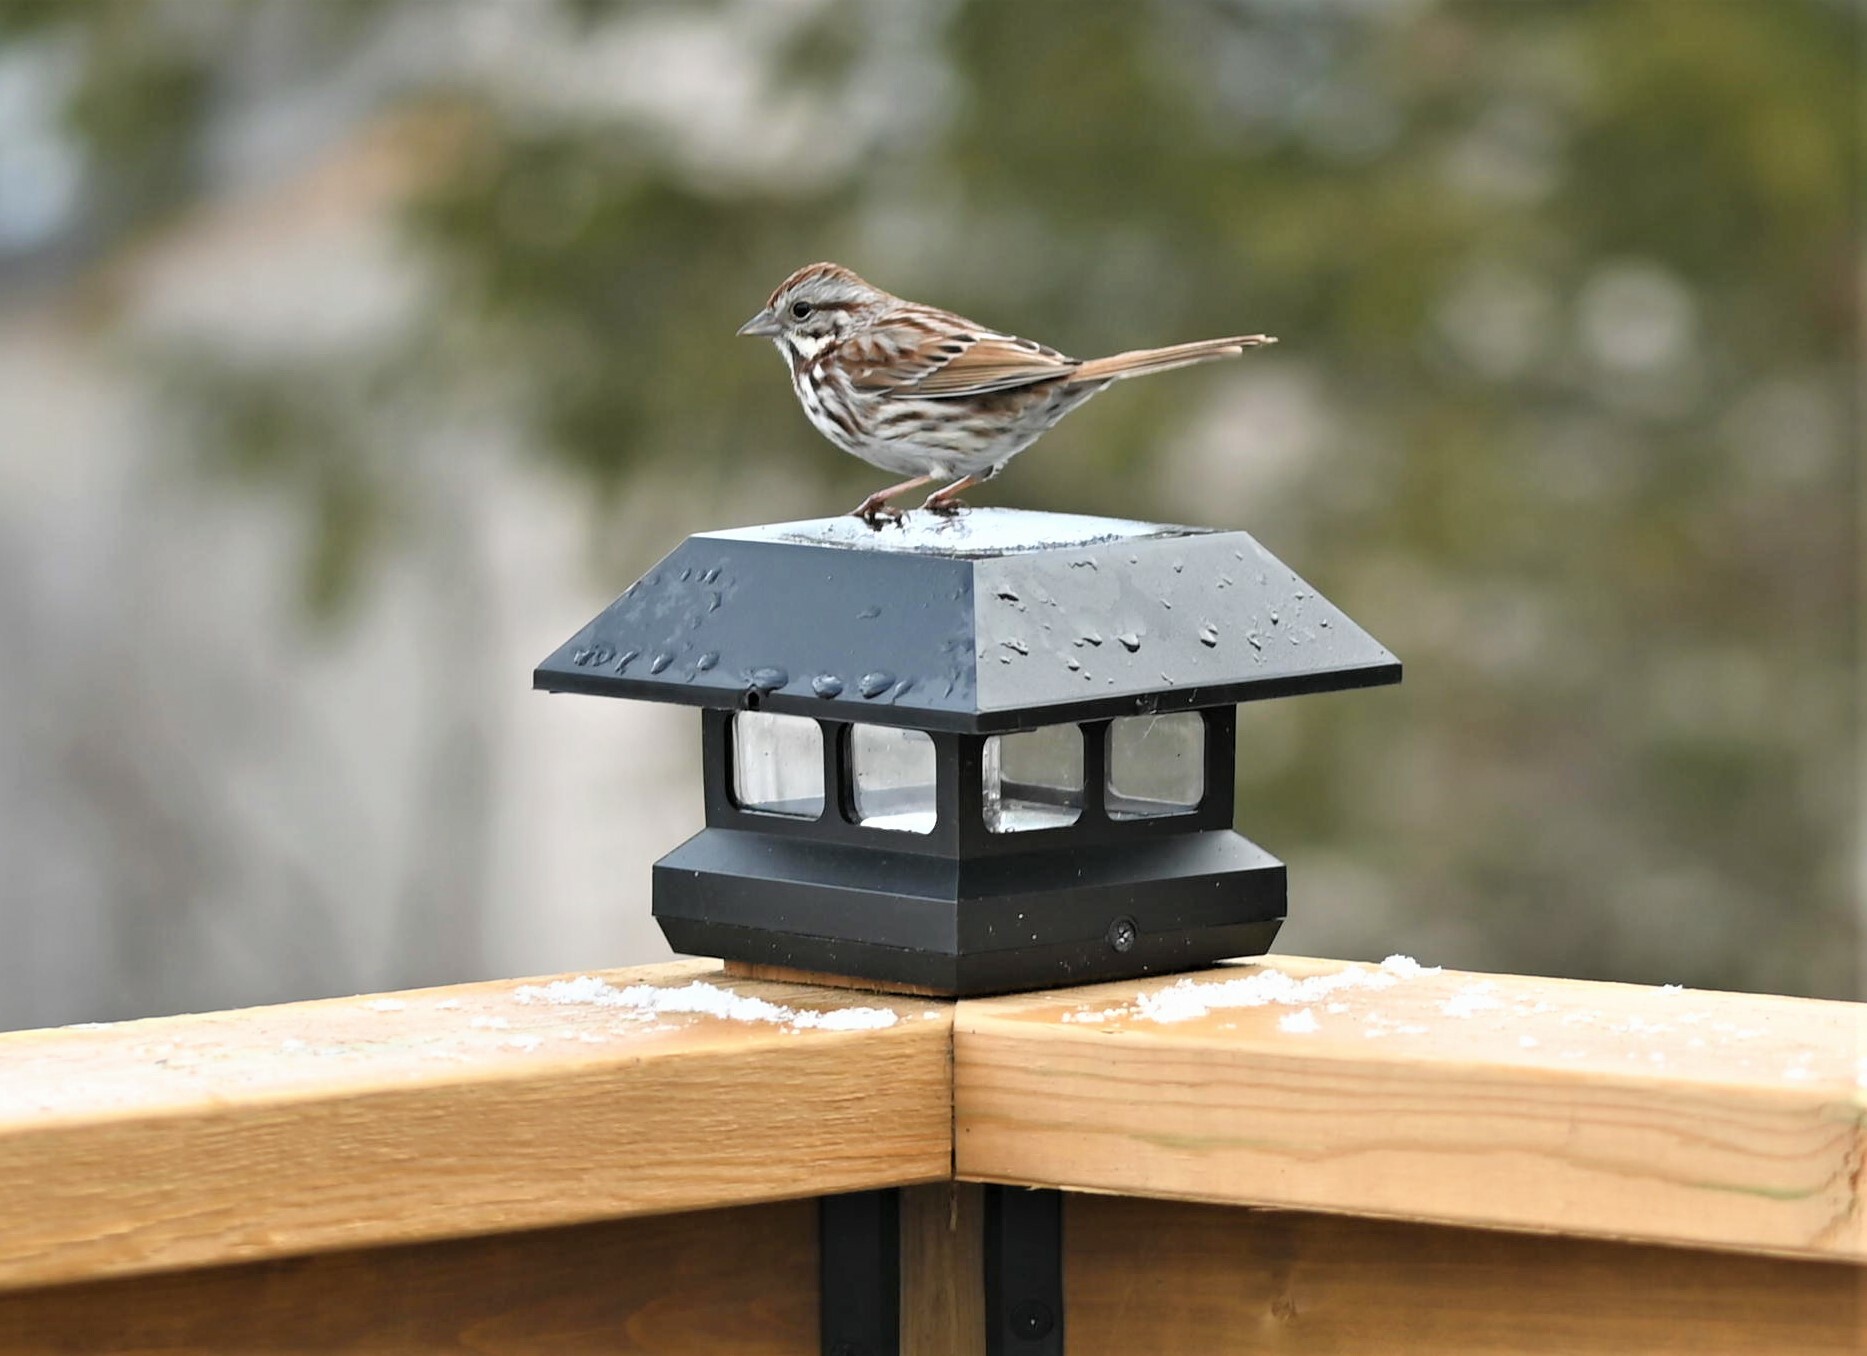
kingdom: Animalia
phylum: Chordata
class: Aves
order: Passeriformes
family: Passerellidae
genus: Melospiza
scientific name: Melospiza melodia
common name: Song sparrow
